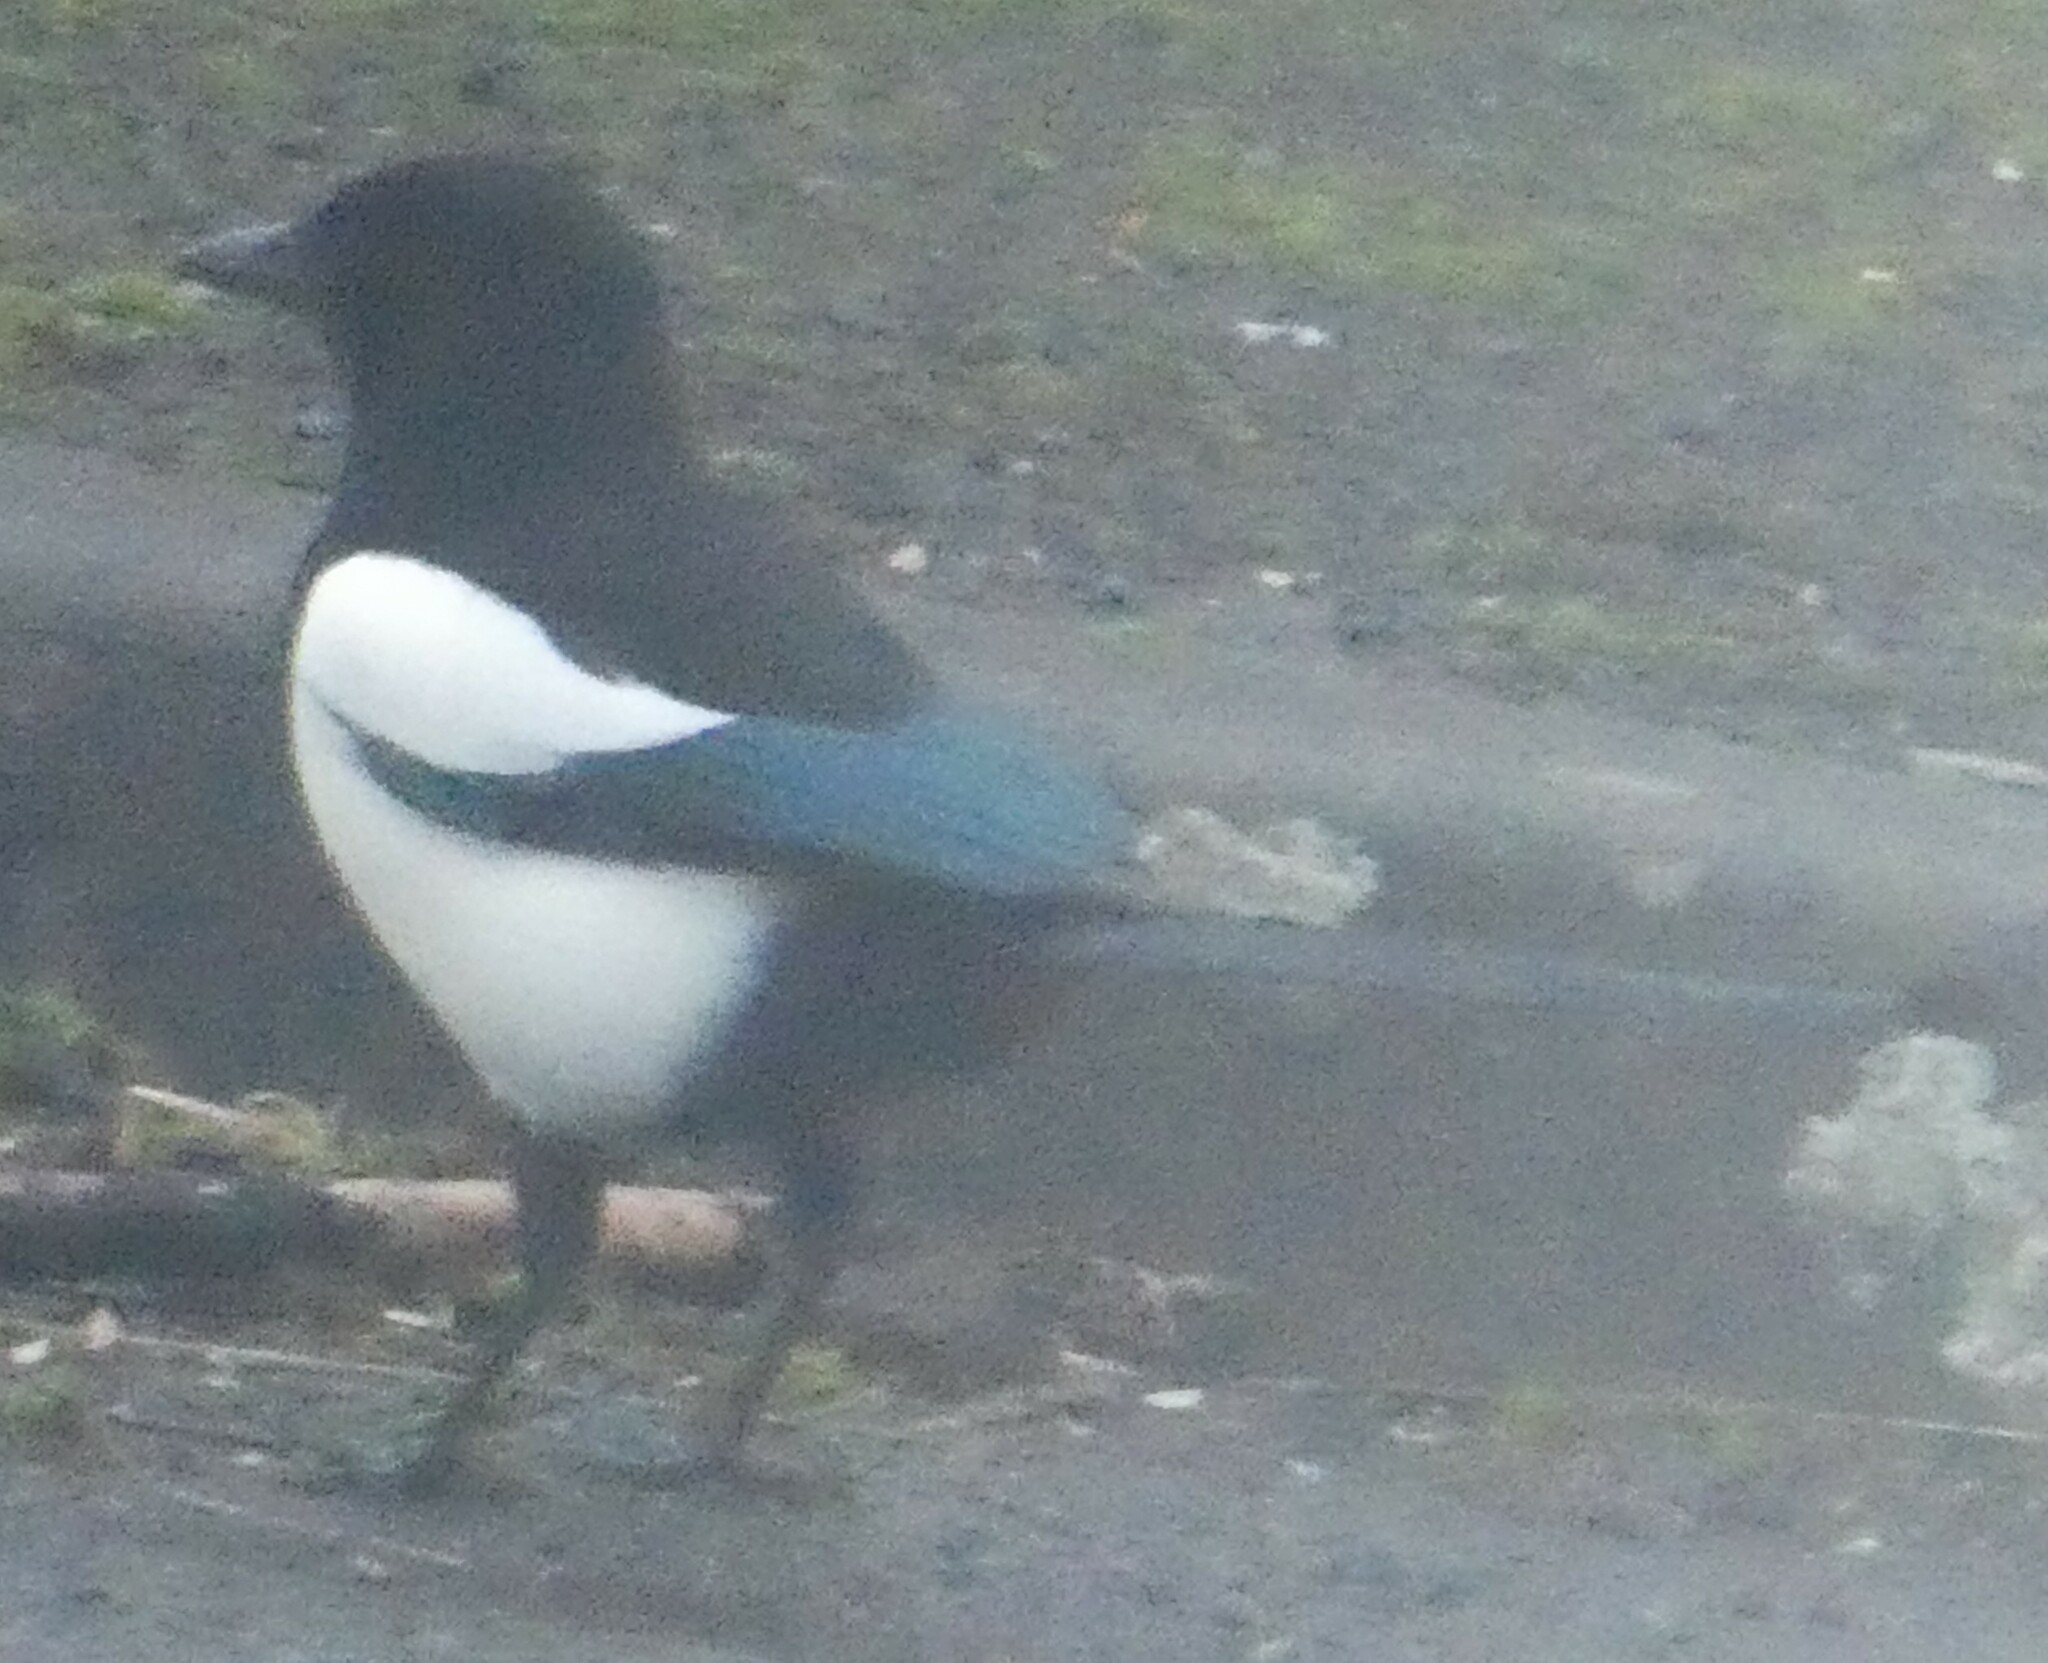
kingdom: Animalia
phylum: Chordata
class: Aves
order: Passeriformes
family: Corvidae
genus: Pica
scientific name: Pica pica
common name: Eurasian magpie
